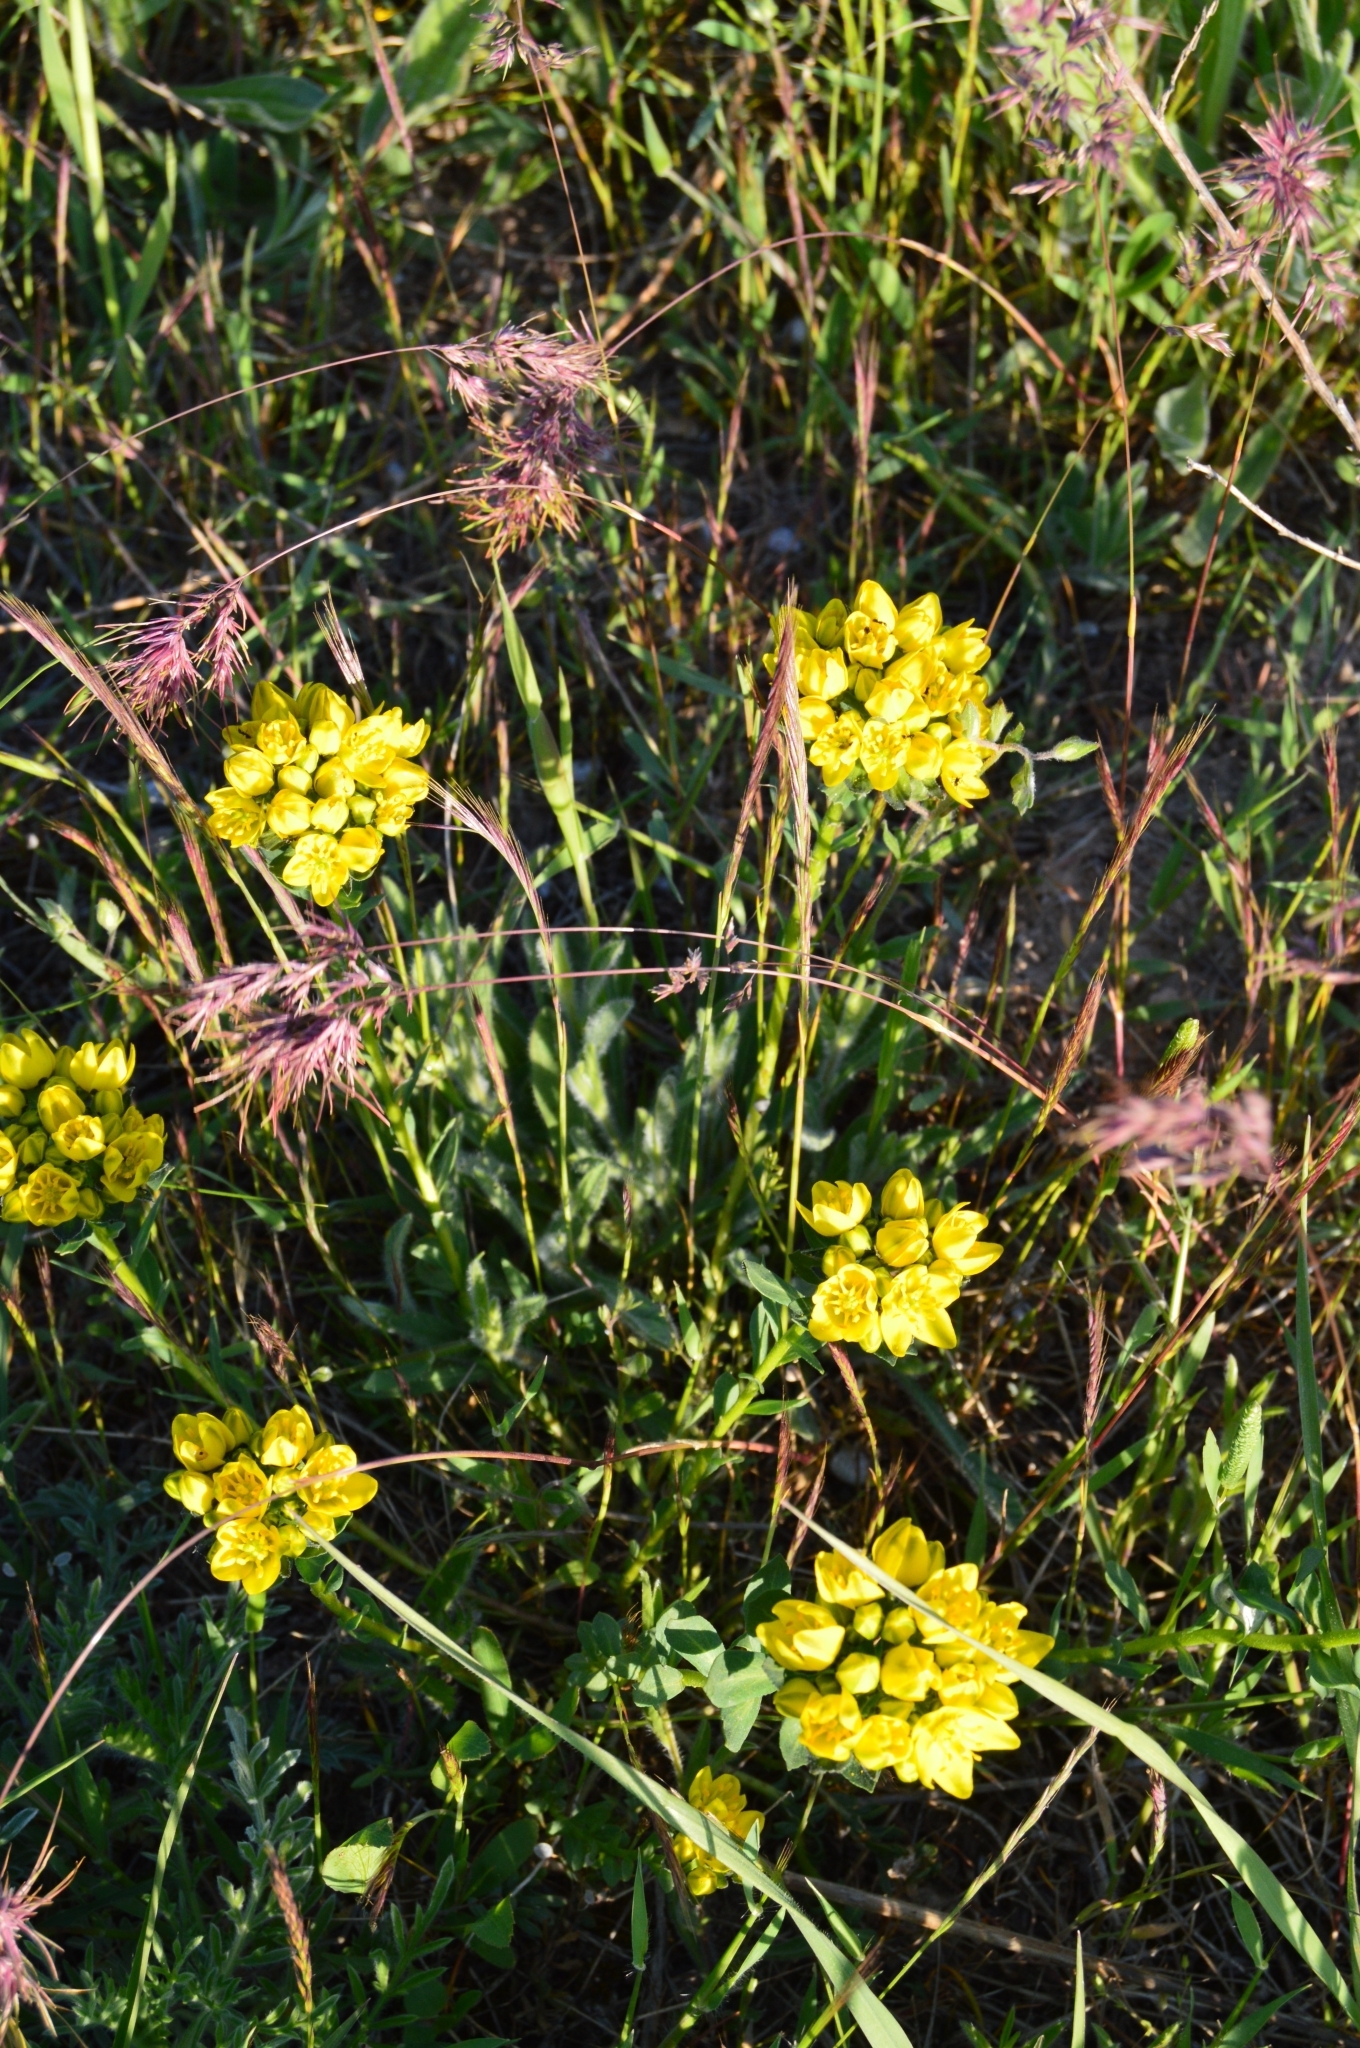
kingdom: Plantae
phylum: Tracheophyta
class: Magnoliopsida
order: Sapindales
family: Rutaceae
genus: Haplophyllum
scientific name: Haplophyllum suaveolens
